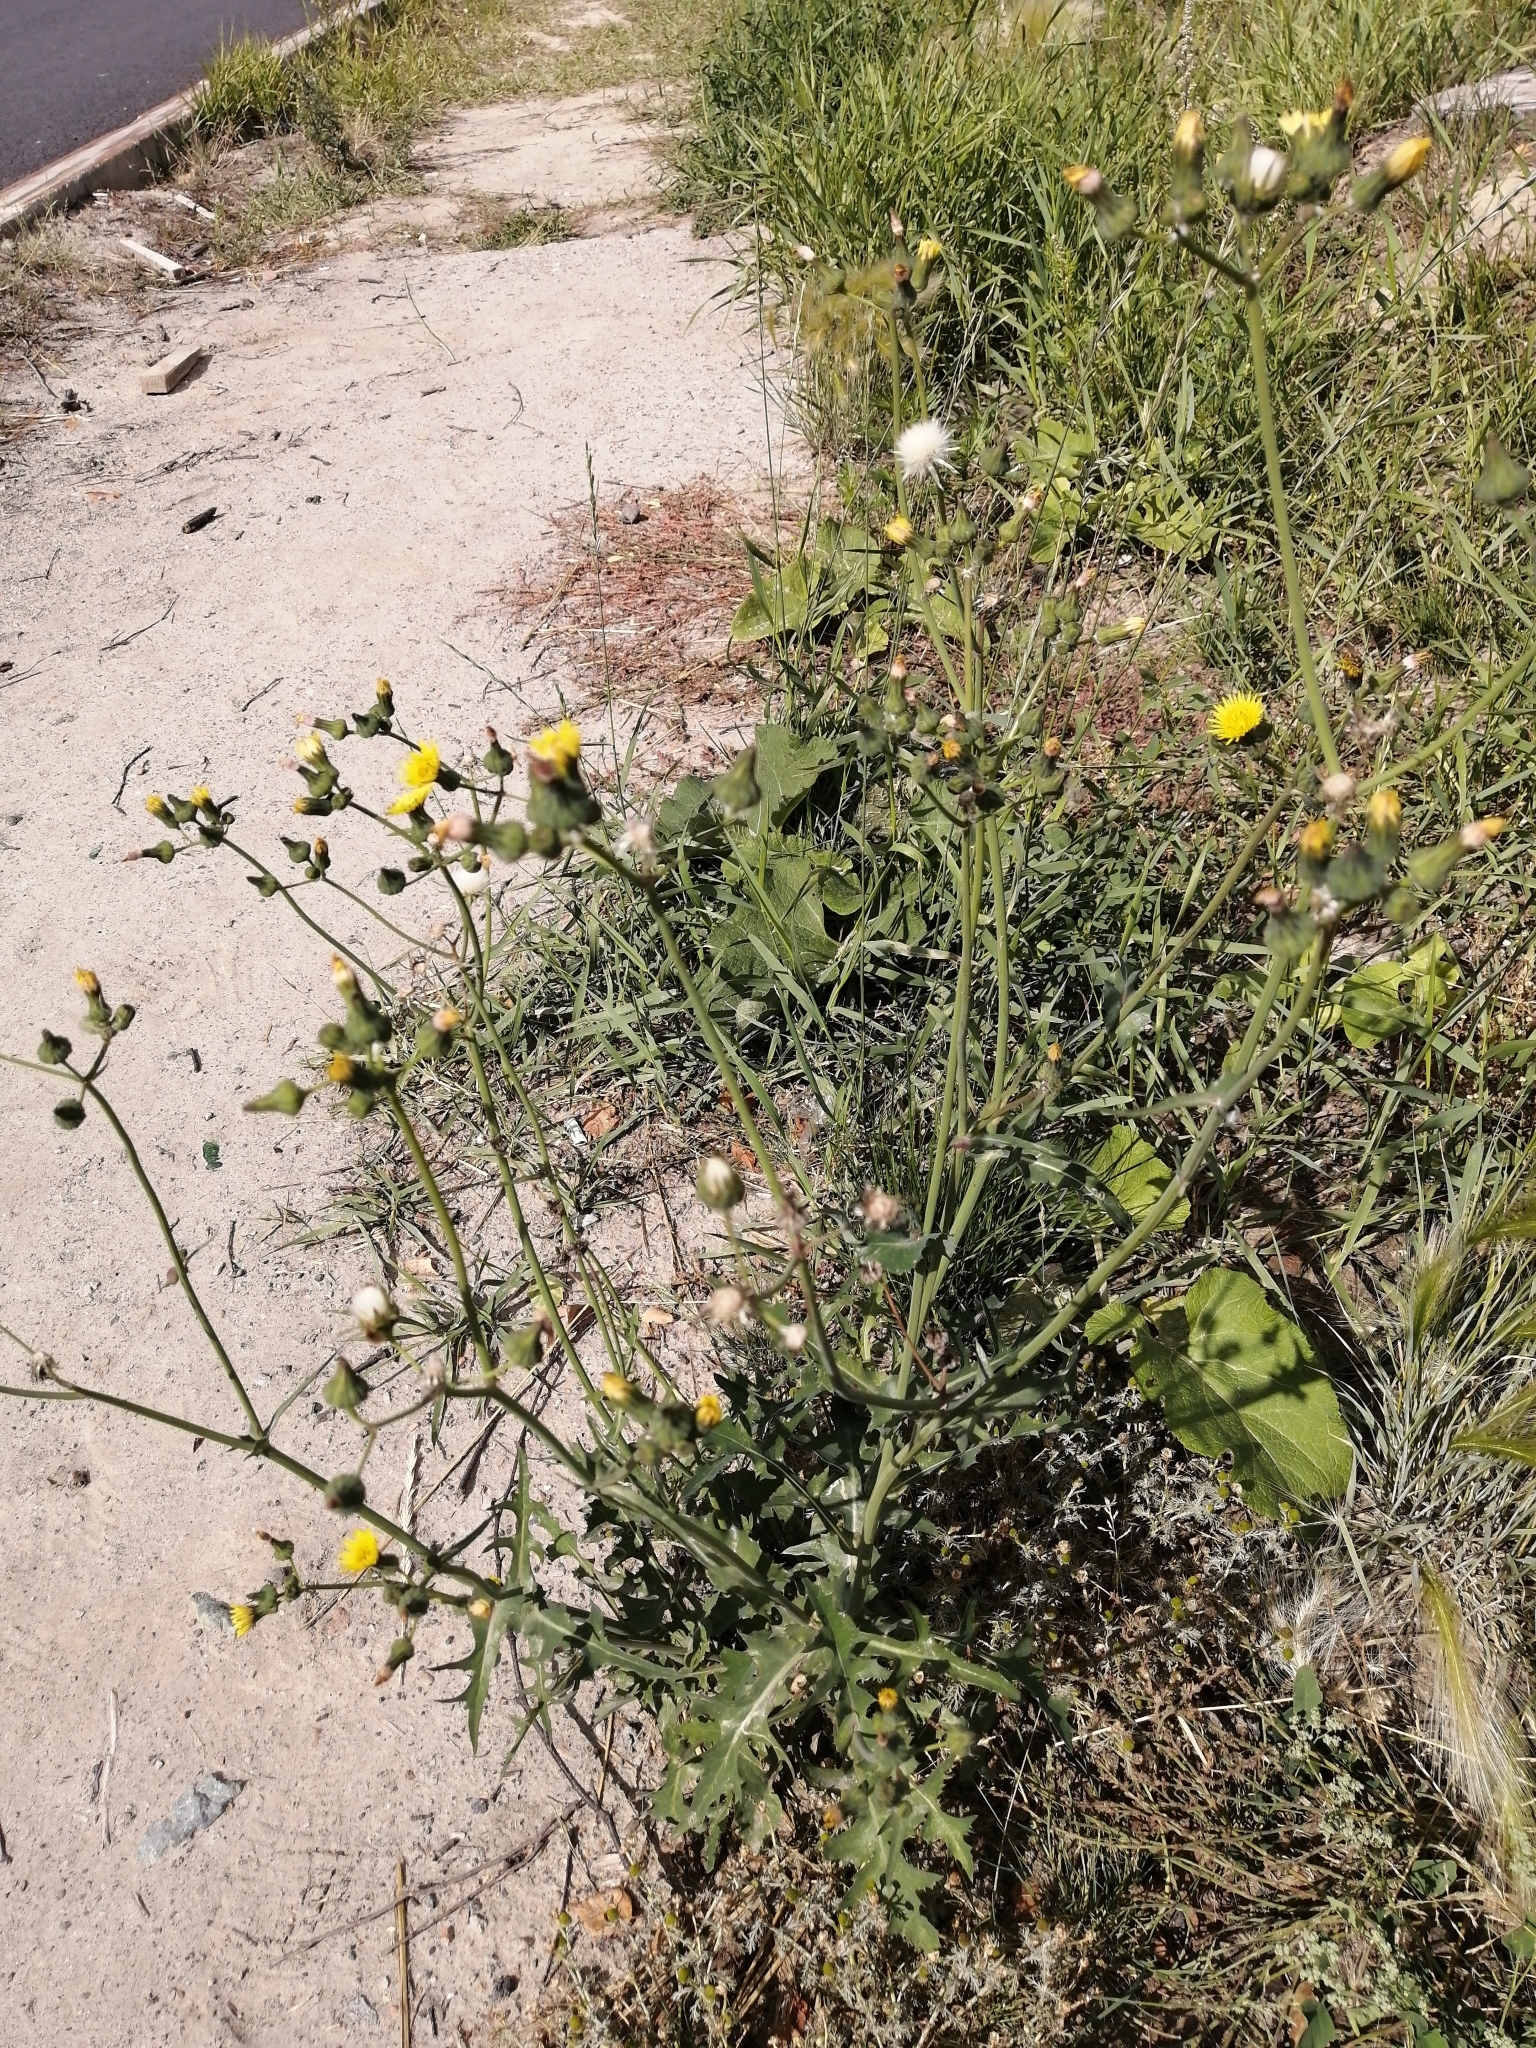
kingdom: Plantae
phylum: Tracheophyta
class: Magnoliopsida
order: Asterales
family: Asteraceae
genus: Sonchus
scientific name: Sonchus oleraceus
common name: Common sowthistle
